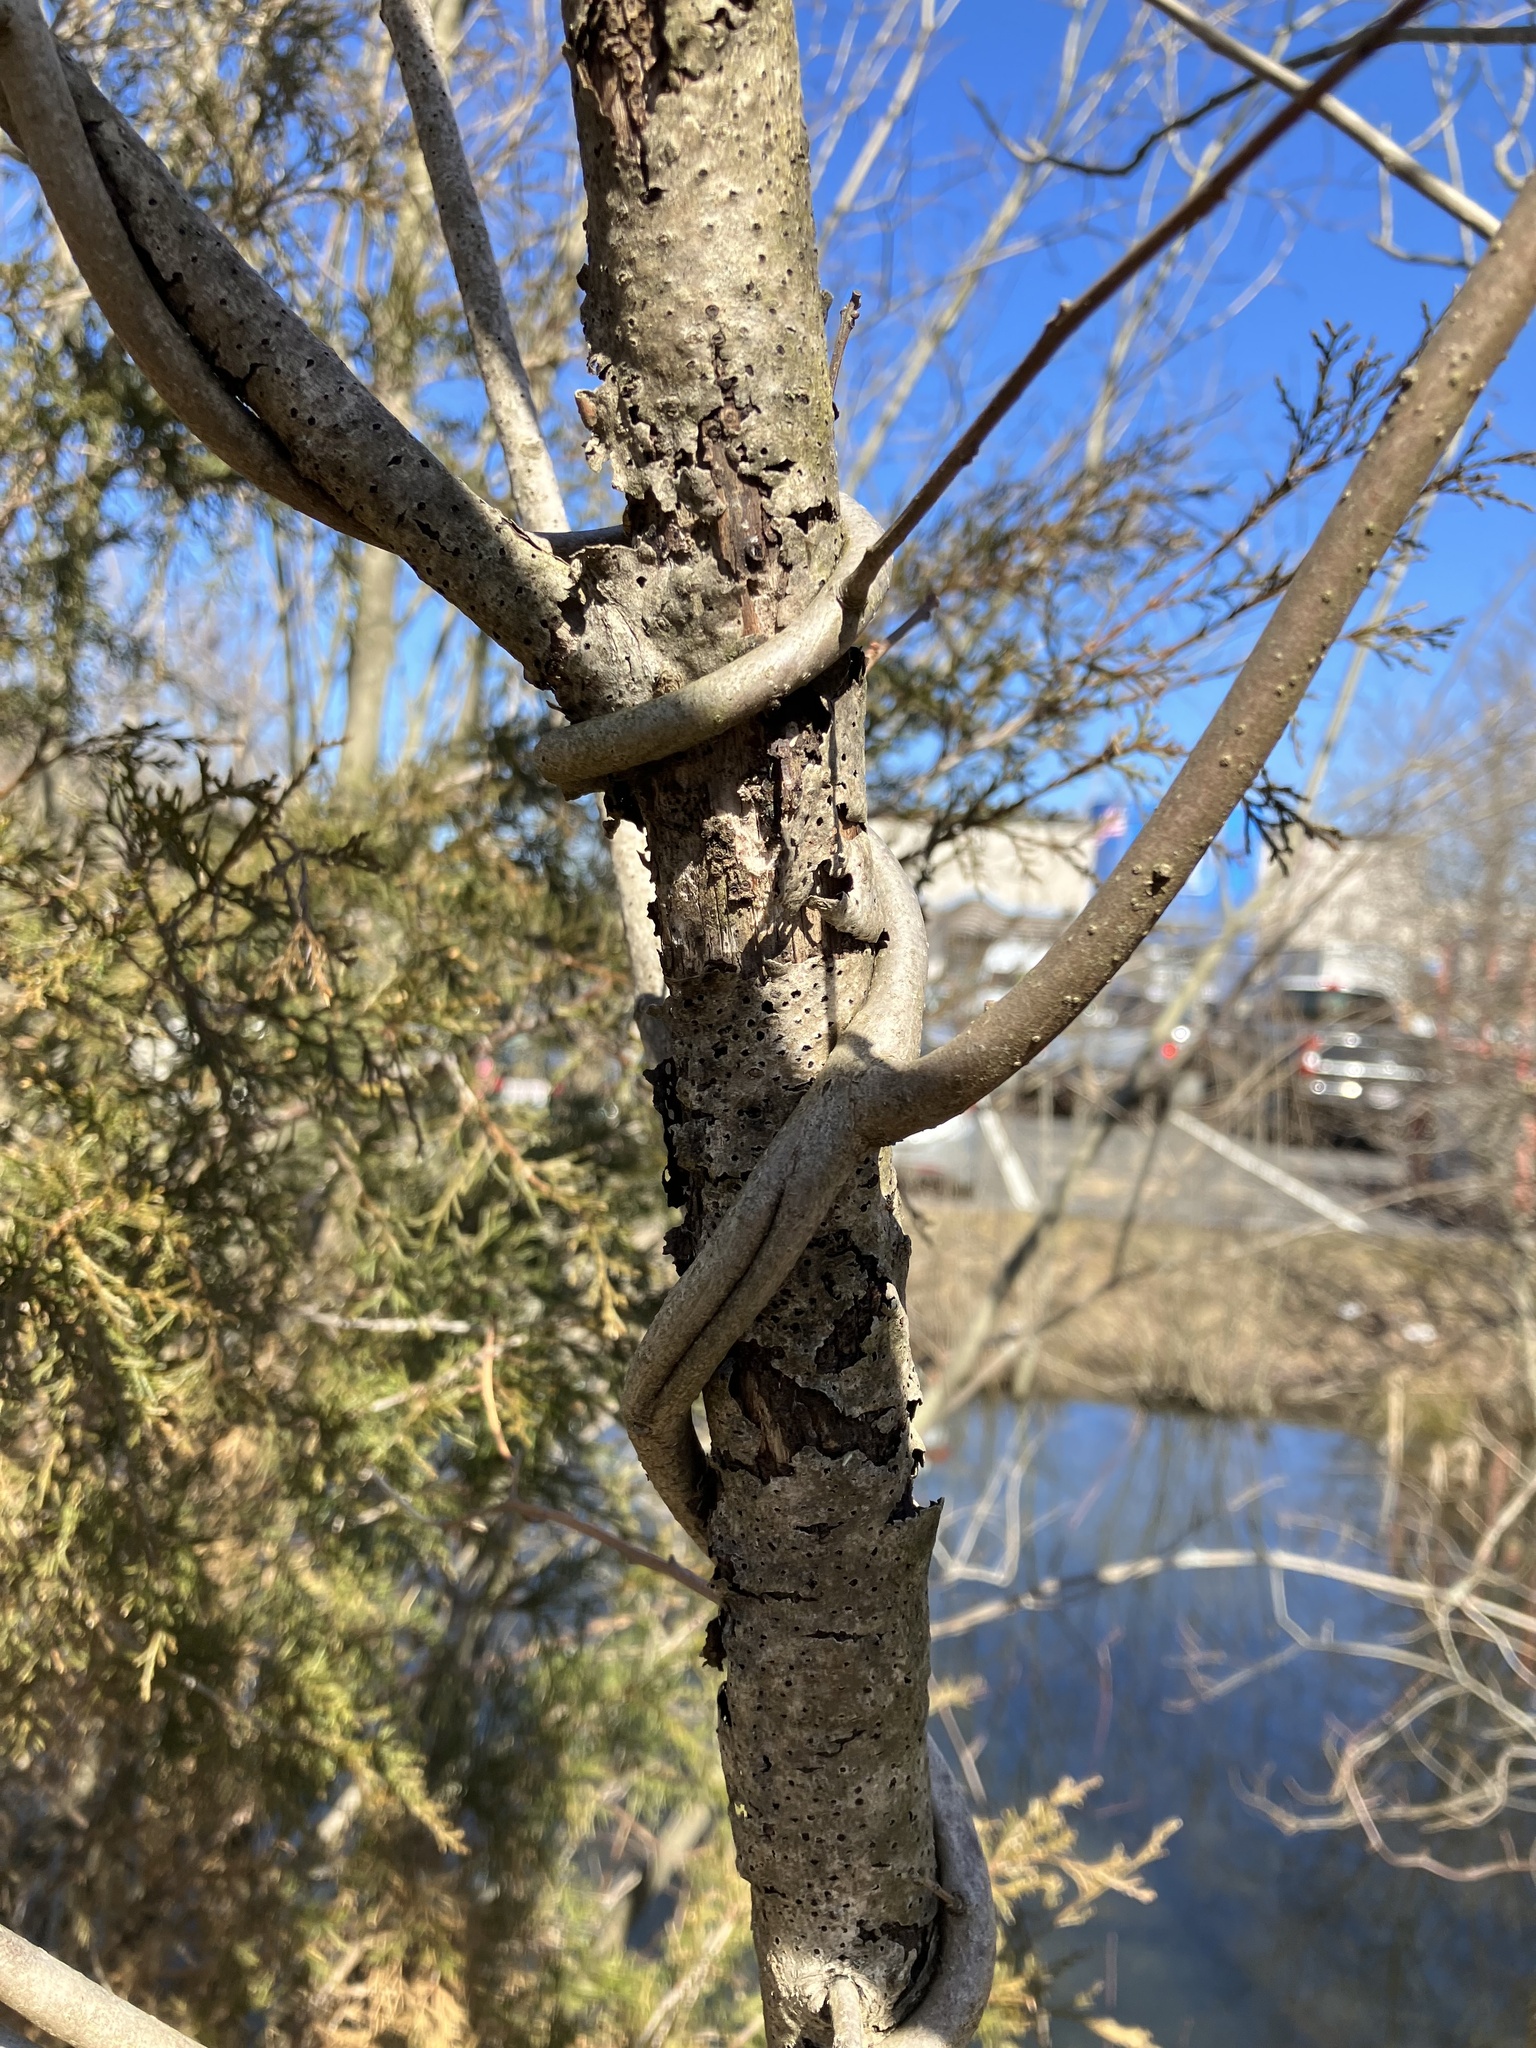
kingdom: Plantae
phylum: Tracheophyta
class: Magnoliopsida
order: Celastrales
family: Celastraceae
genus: Celastrus
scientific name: Celastrus orbiculatus
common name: Oriental bittersweet
